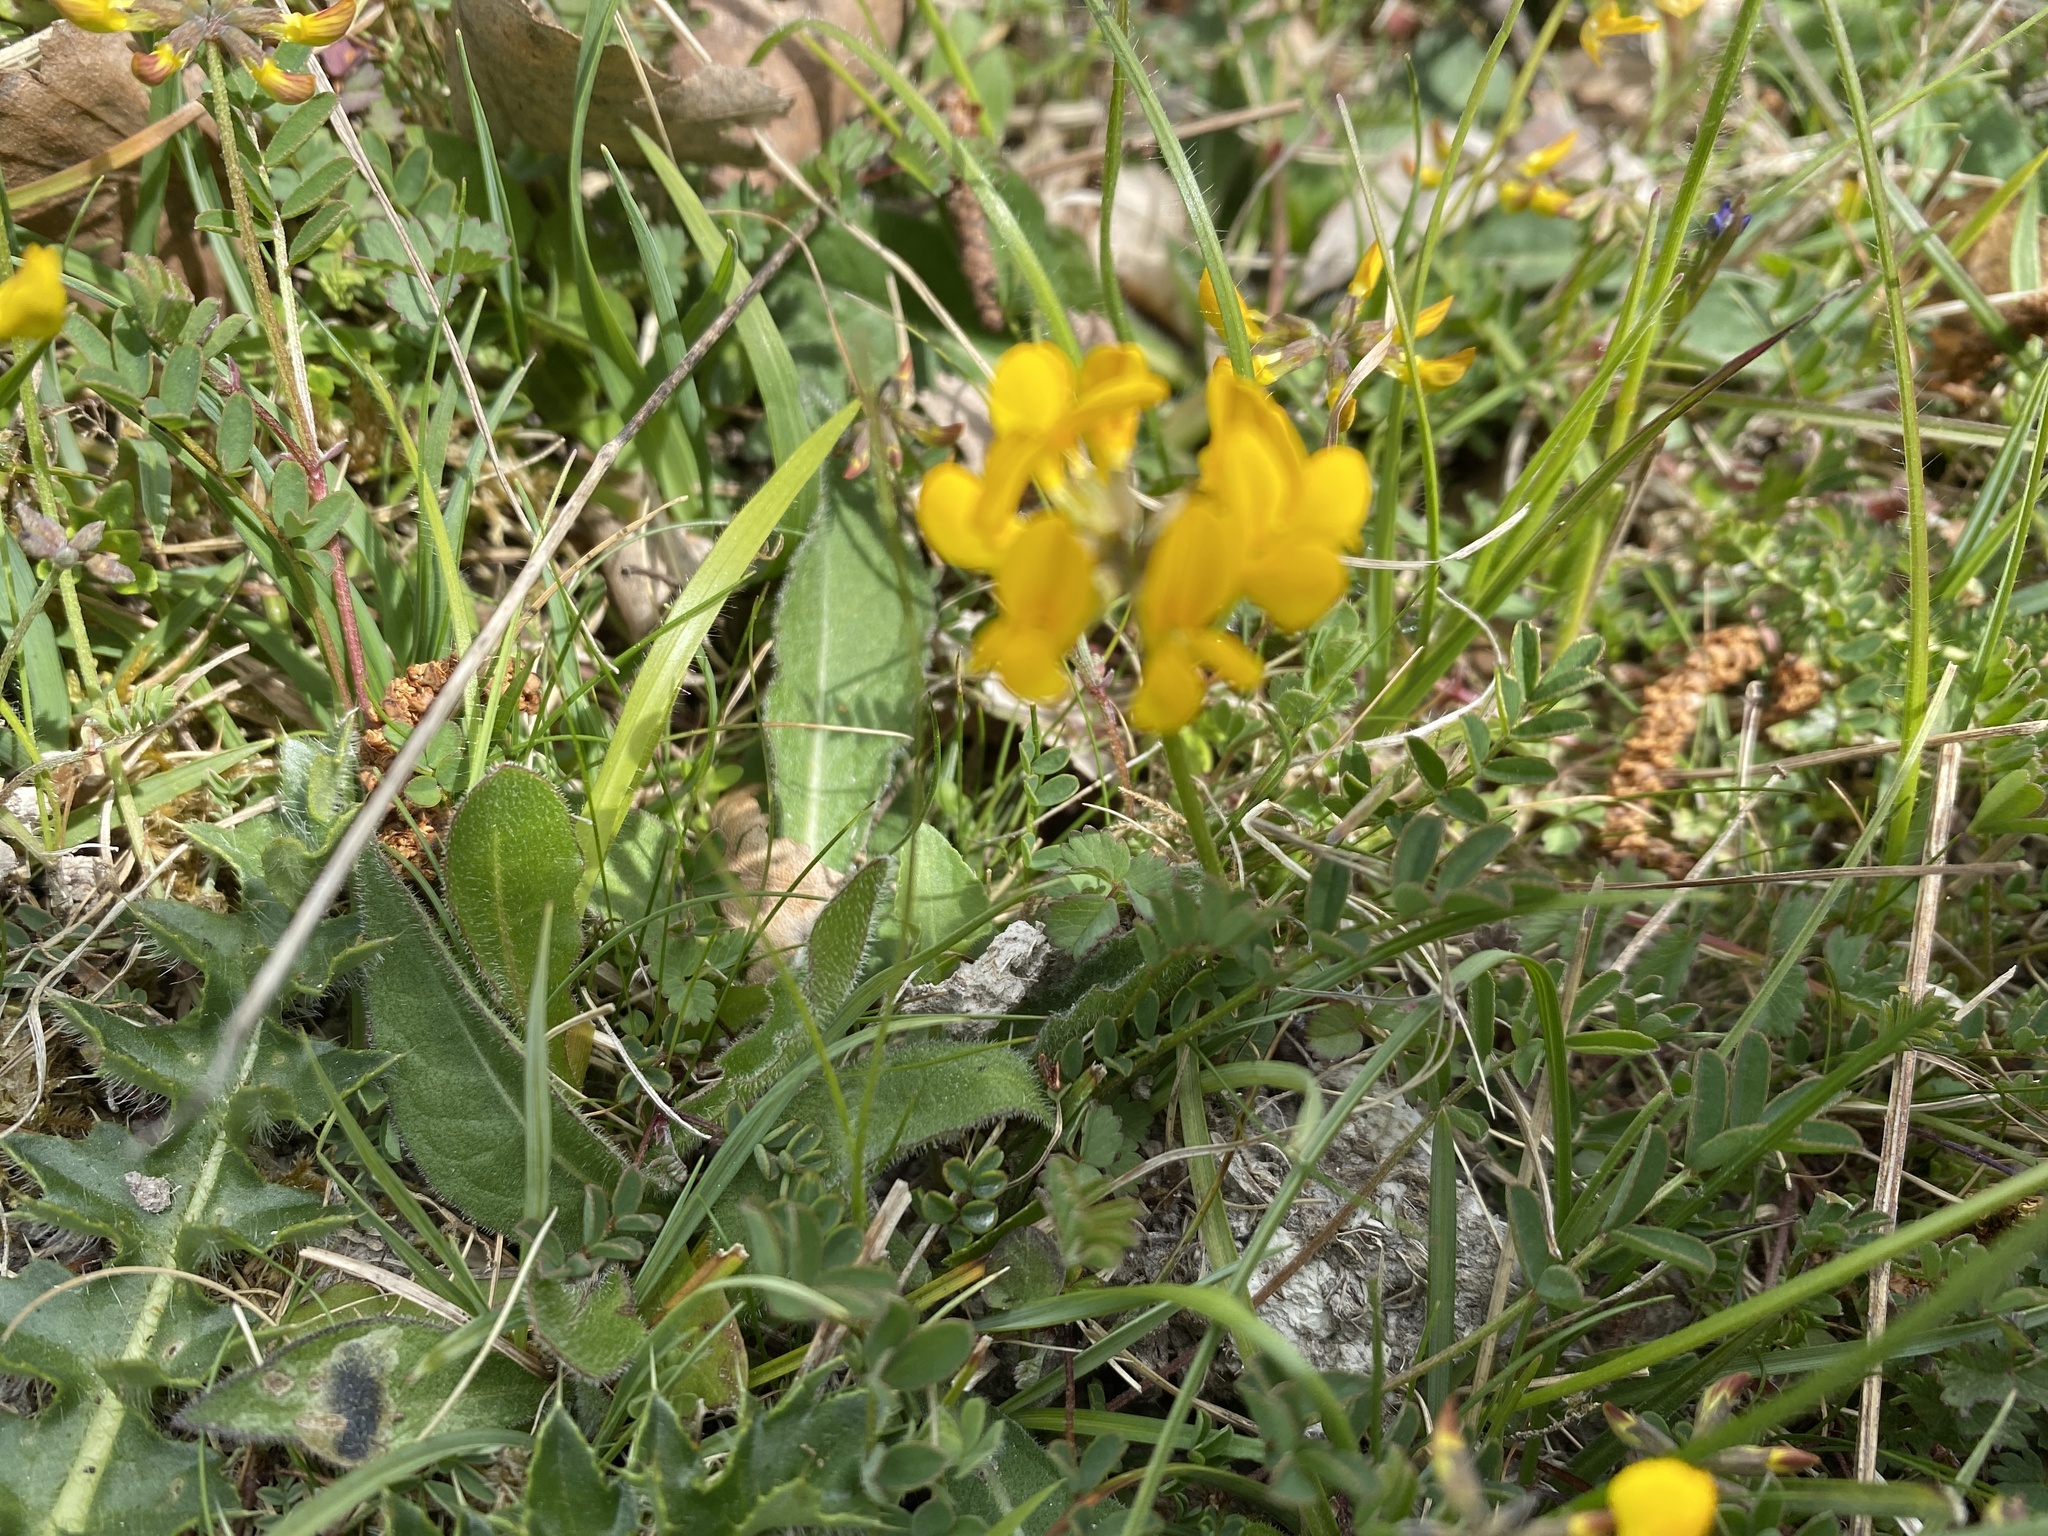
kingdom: Plantae
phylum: Tracheophyta
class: Magnoliopsida
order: Fabales
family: Fabaceae
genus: Hippocrepis
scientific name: Hippocrepis comosa
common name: Horseshoe vetch
